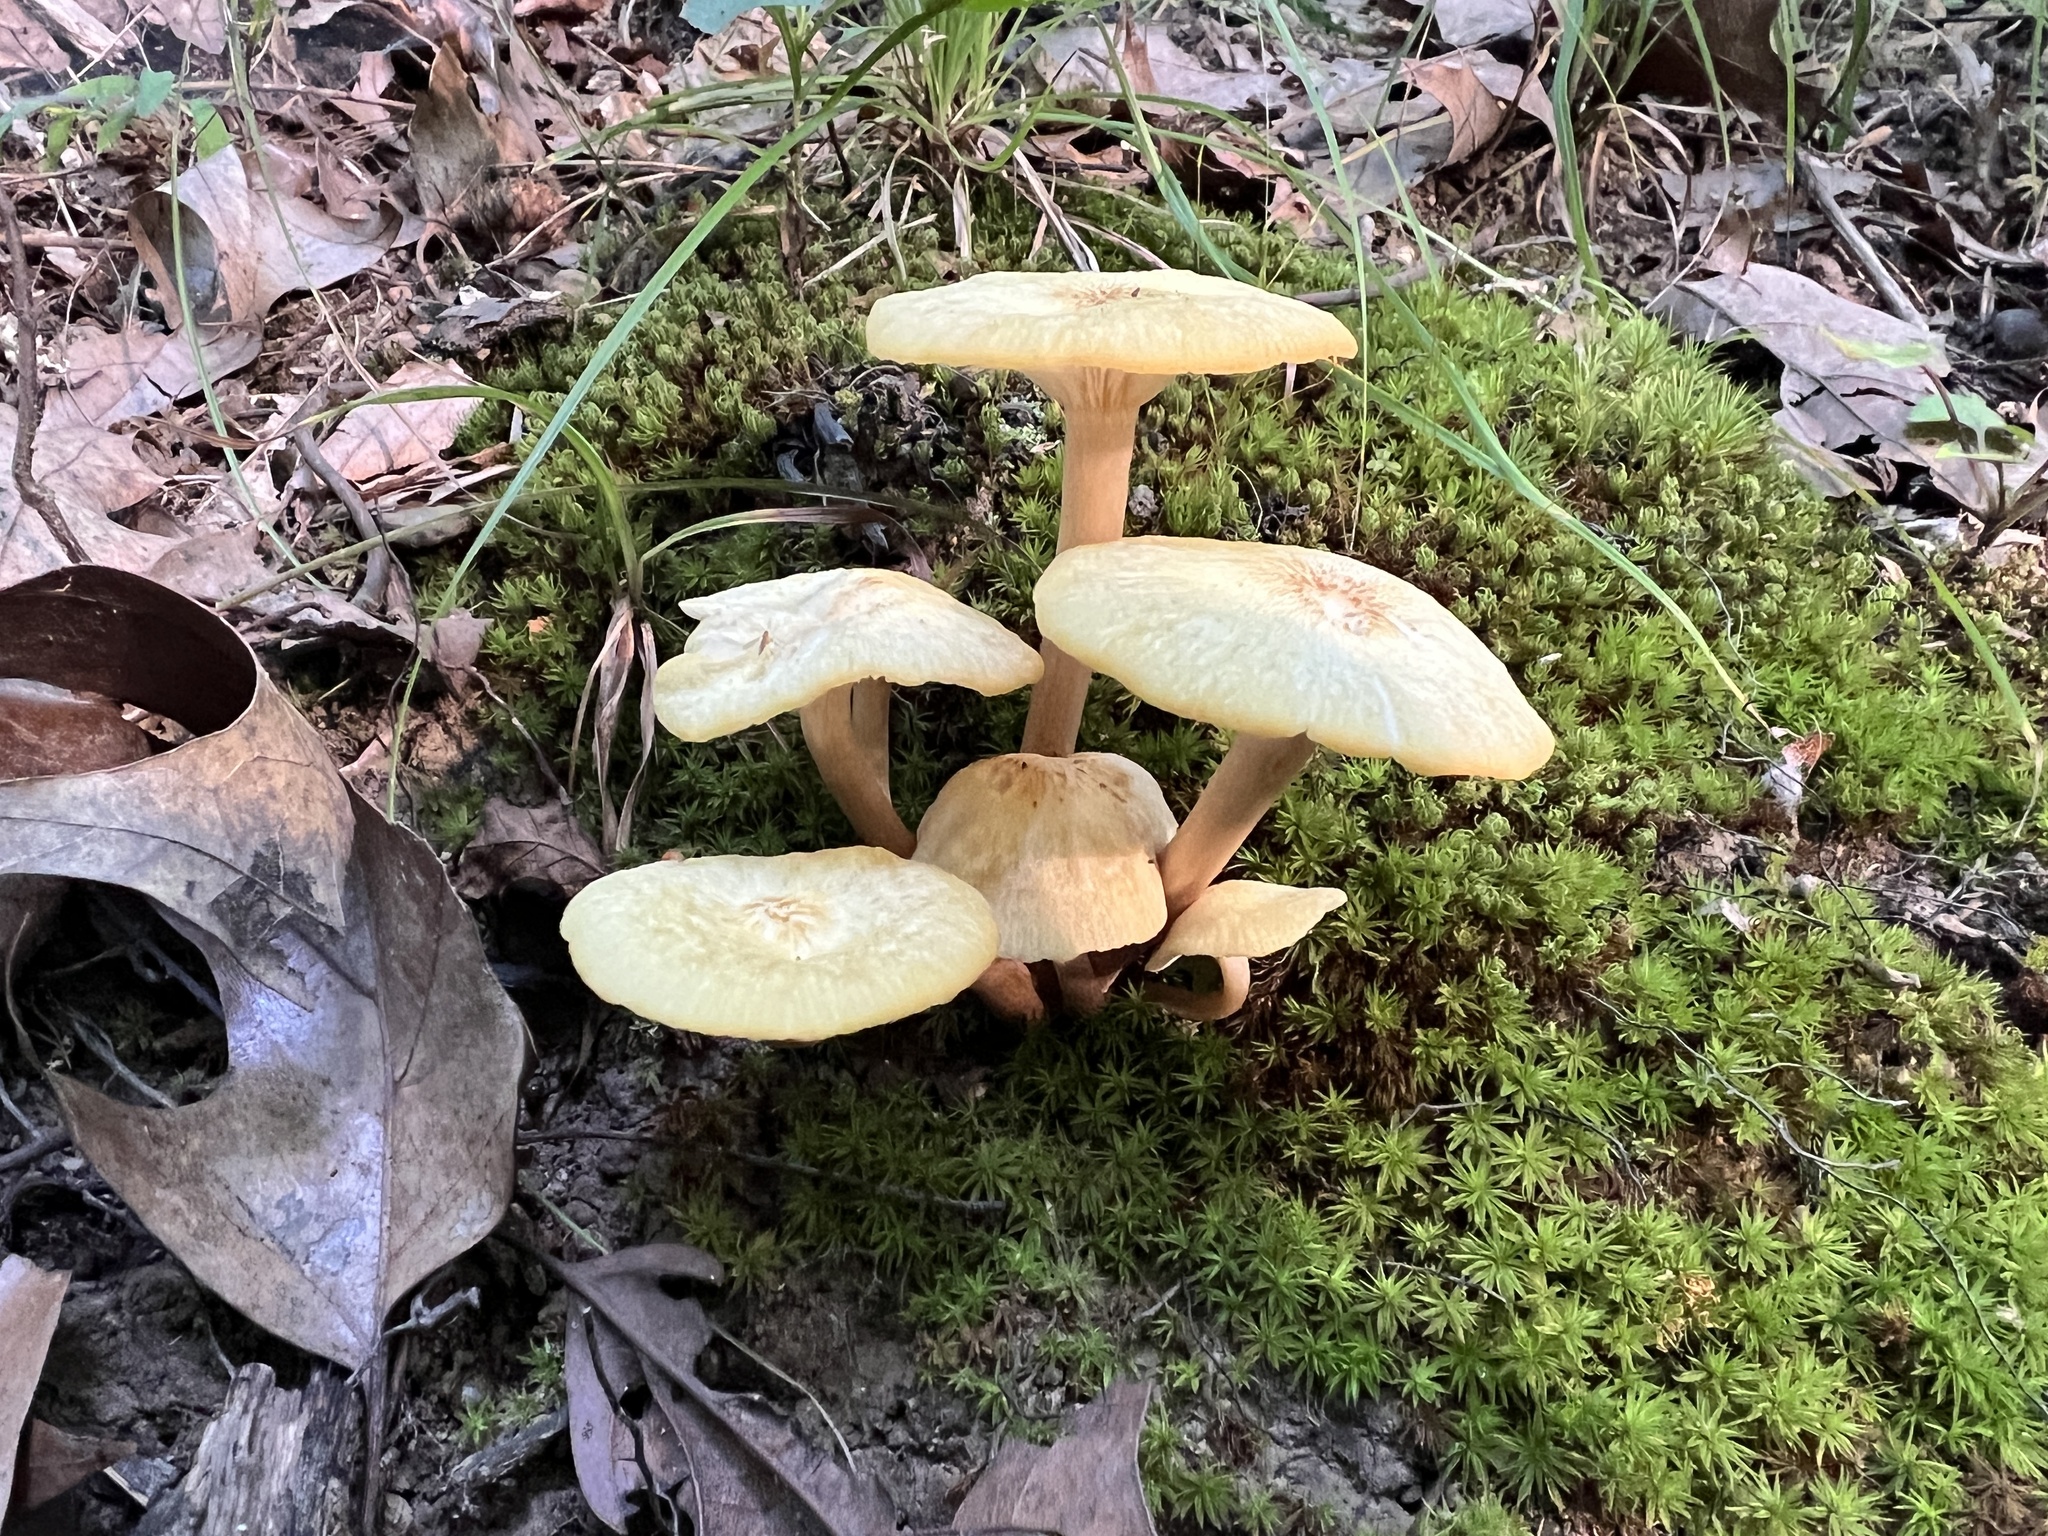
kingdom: Fungi
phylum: Basidiomycota
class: Agaricomycetes
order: Agaricales
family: Physalacriaceae
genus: Desarmillaria
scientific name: Desarmillaria caespitosa
